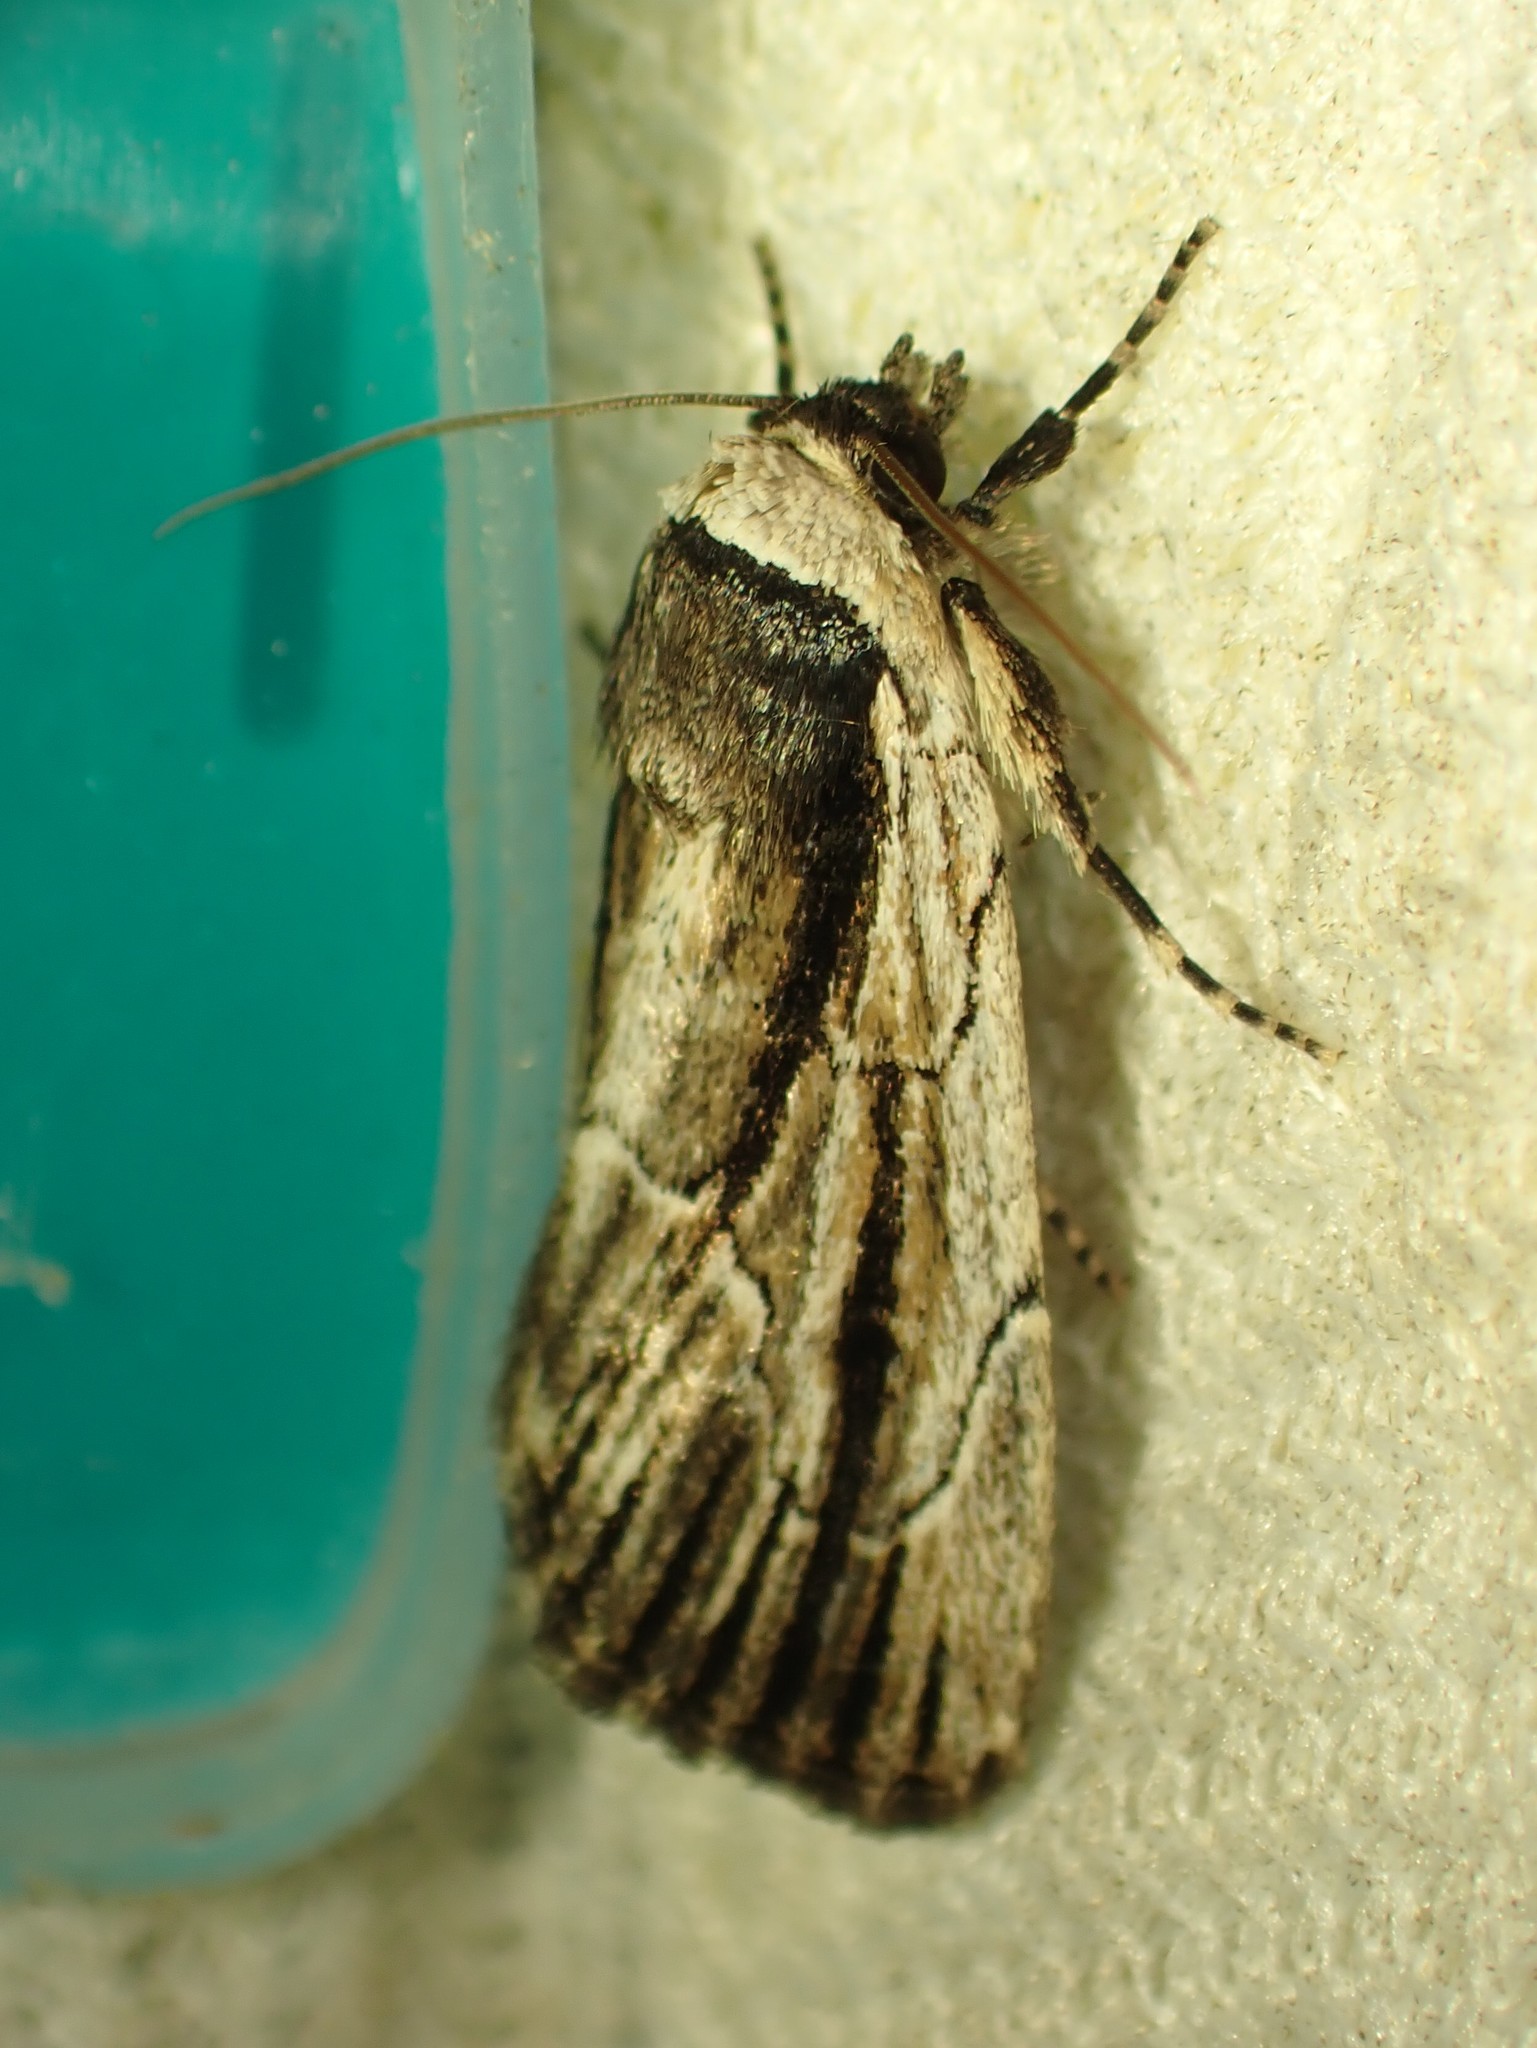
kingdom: Animalia
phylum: Arthropoda
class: Insecta
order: Lepidoptera
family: Noctuidae
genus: Sympistis
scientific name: Sympistis badistriga
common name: Brown-lined sallow moth
